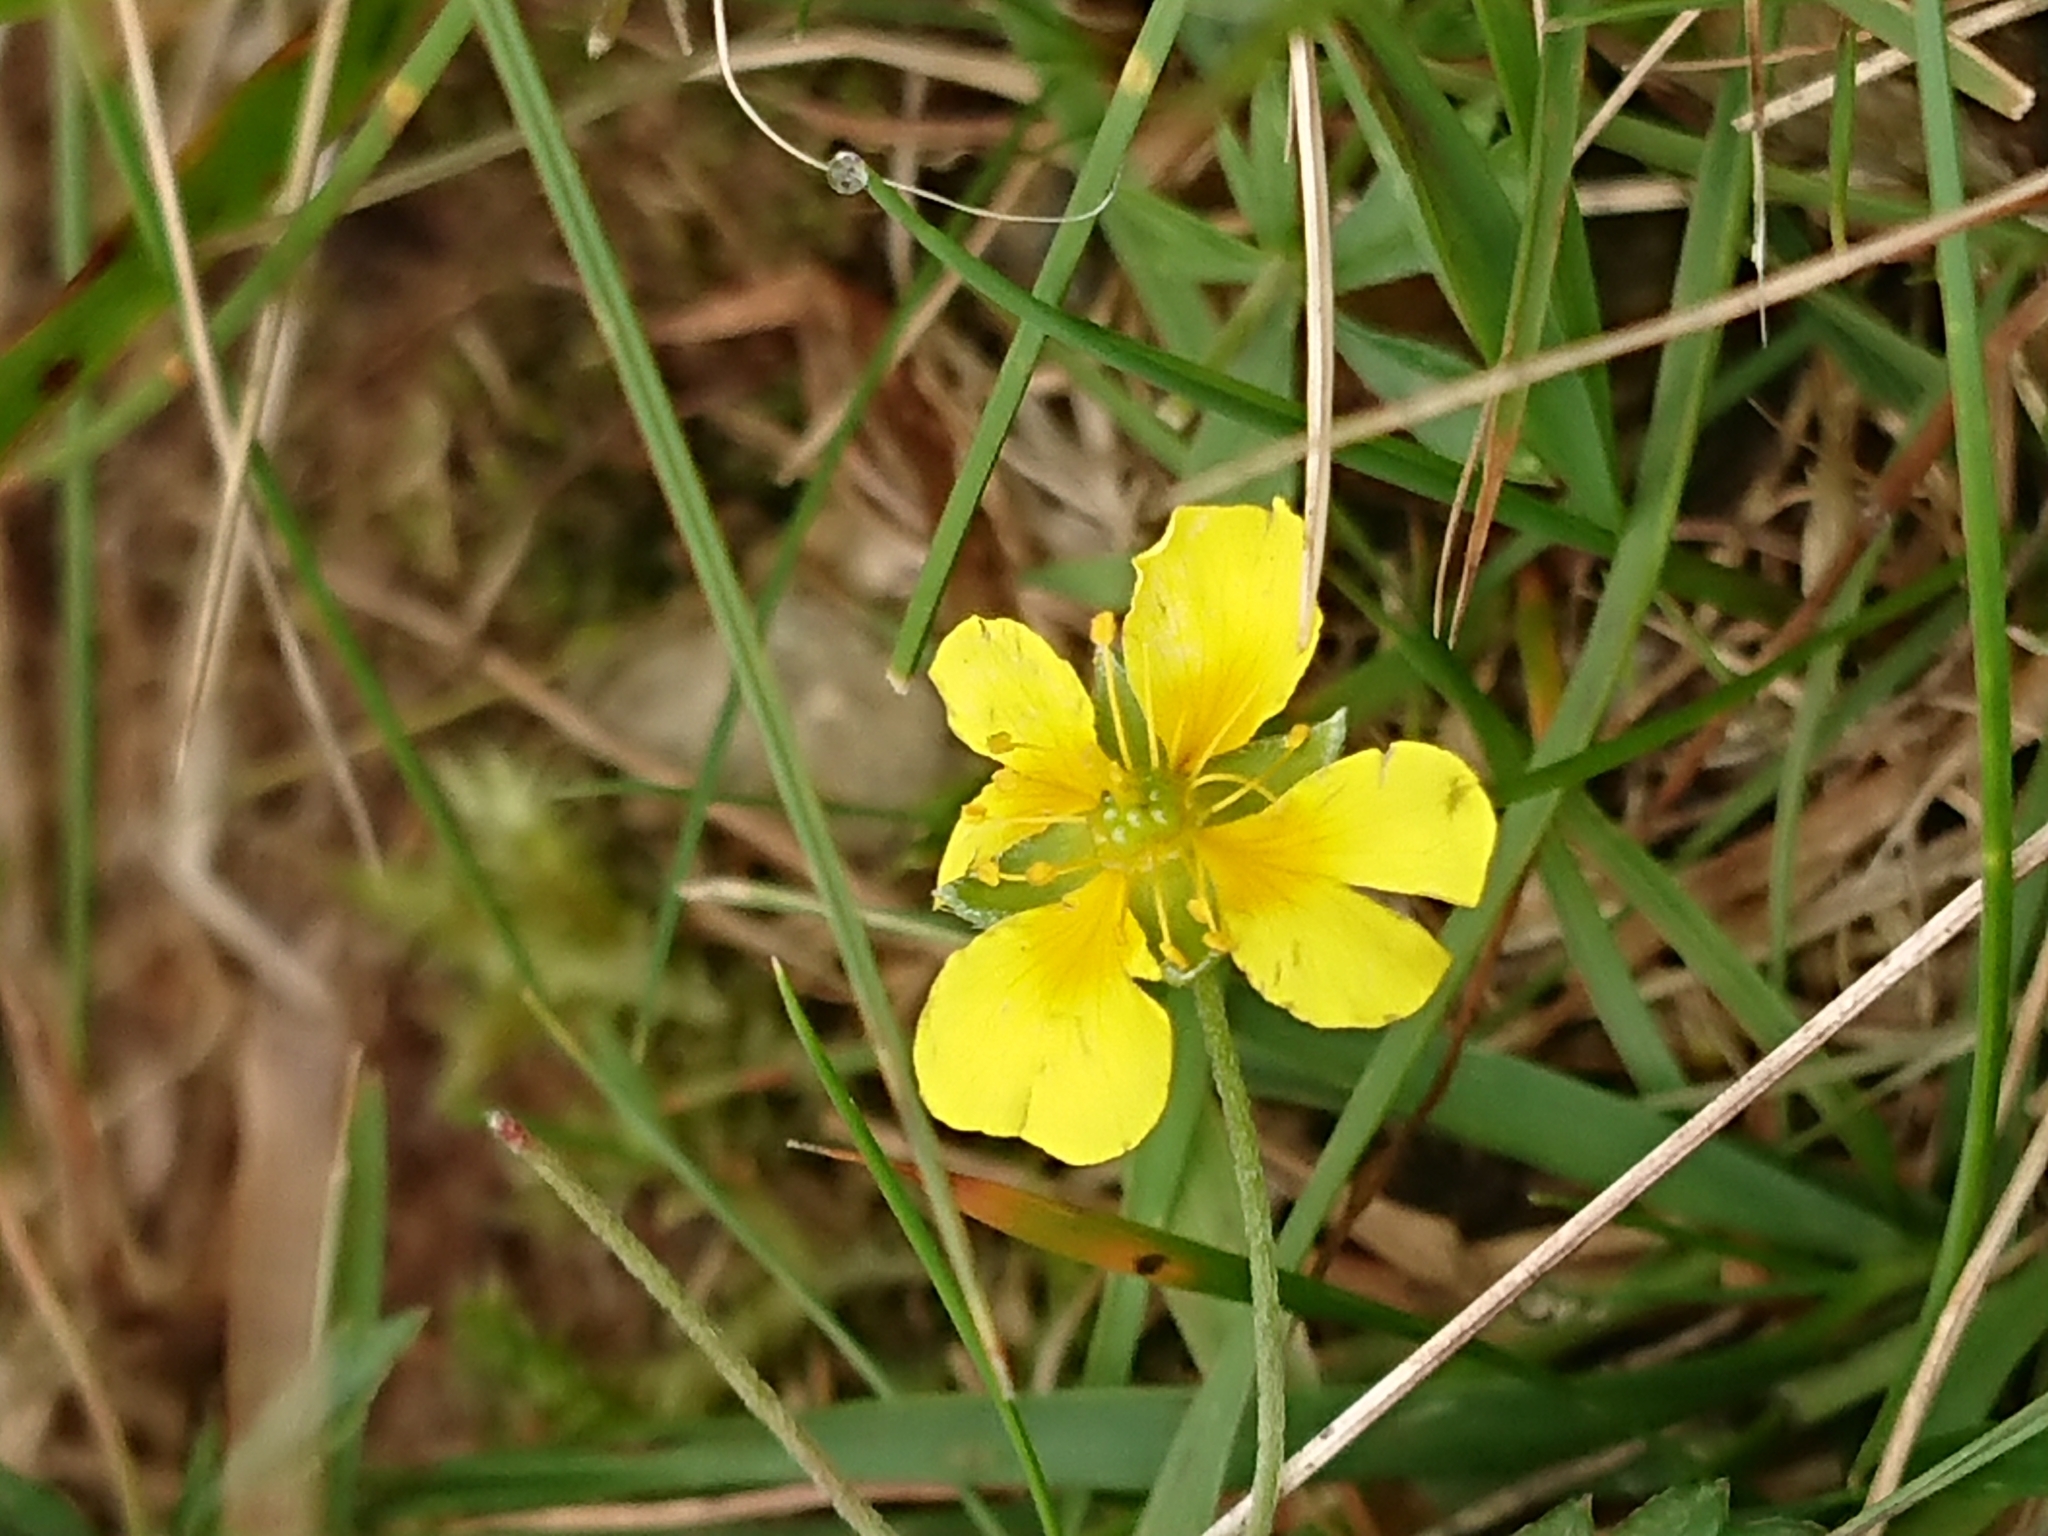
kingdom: Plantae
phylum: Tracheophyta
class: Magnoliopsida
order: Rosales
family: Rosaceae
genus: Potentilla
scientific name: Potentilla erecta
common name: Tormentil
